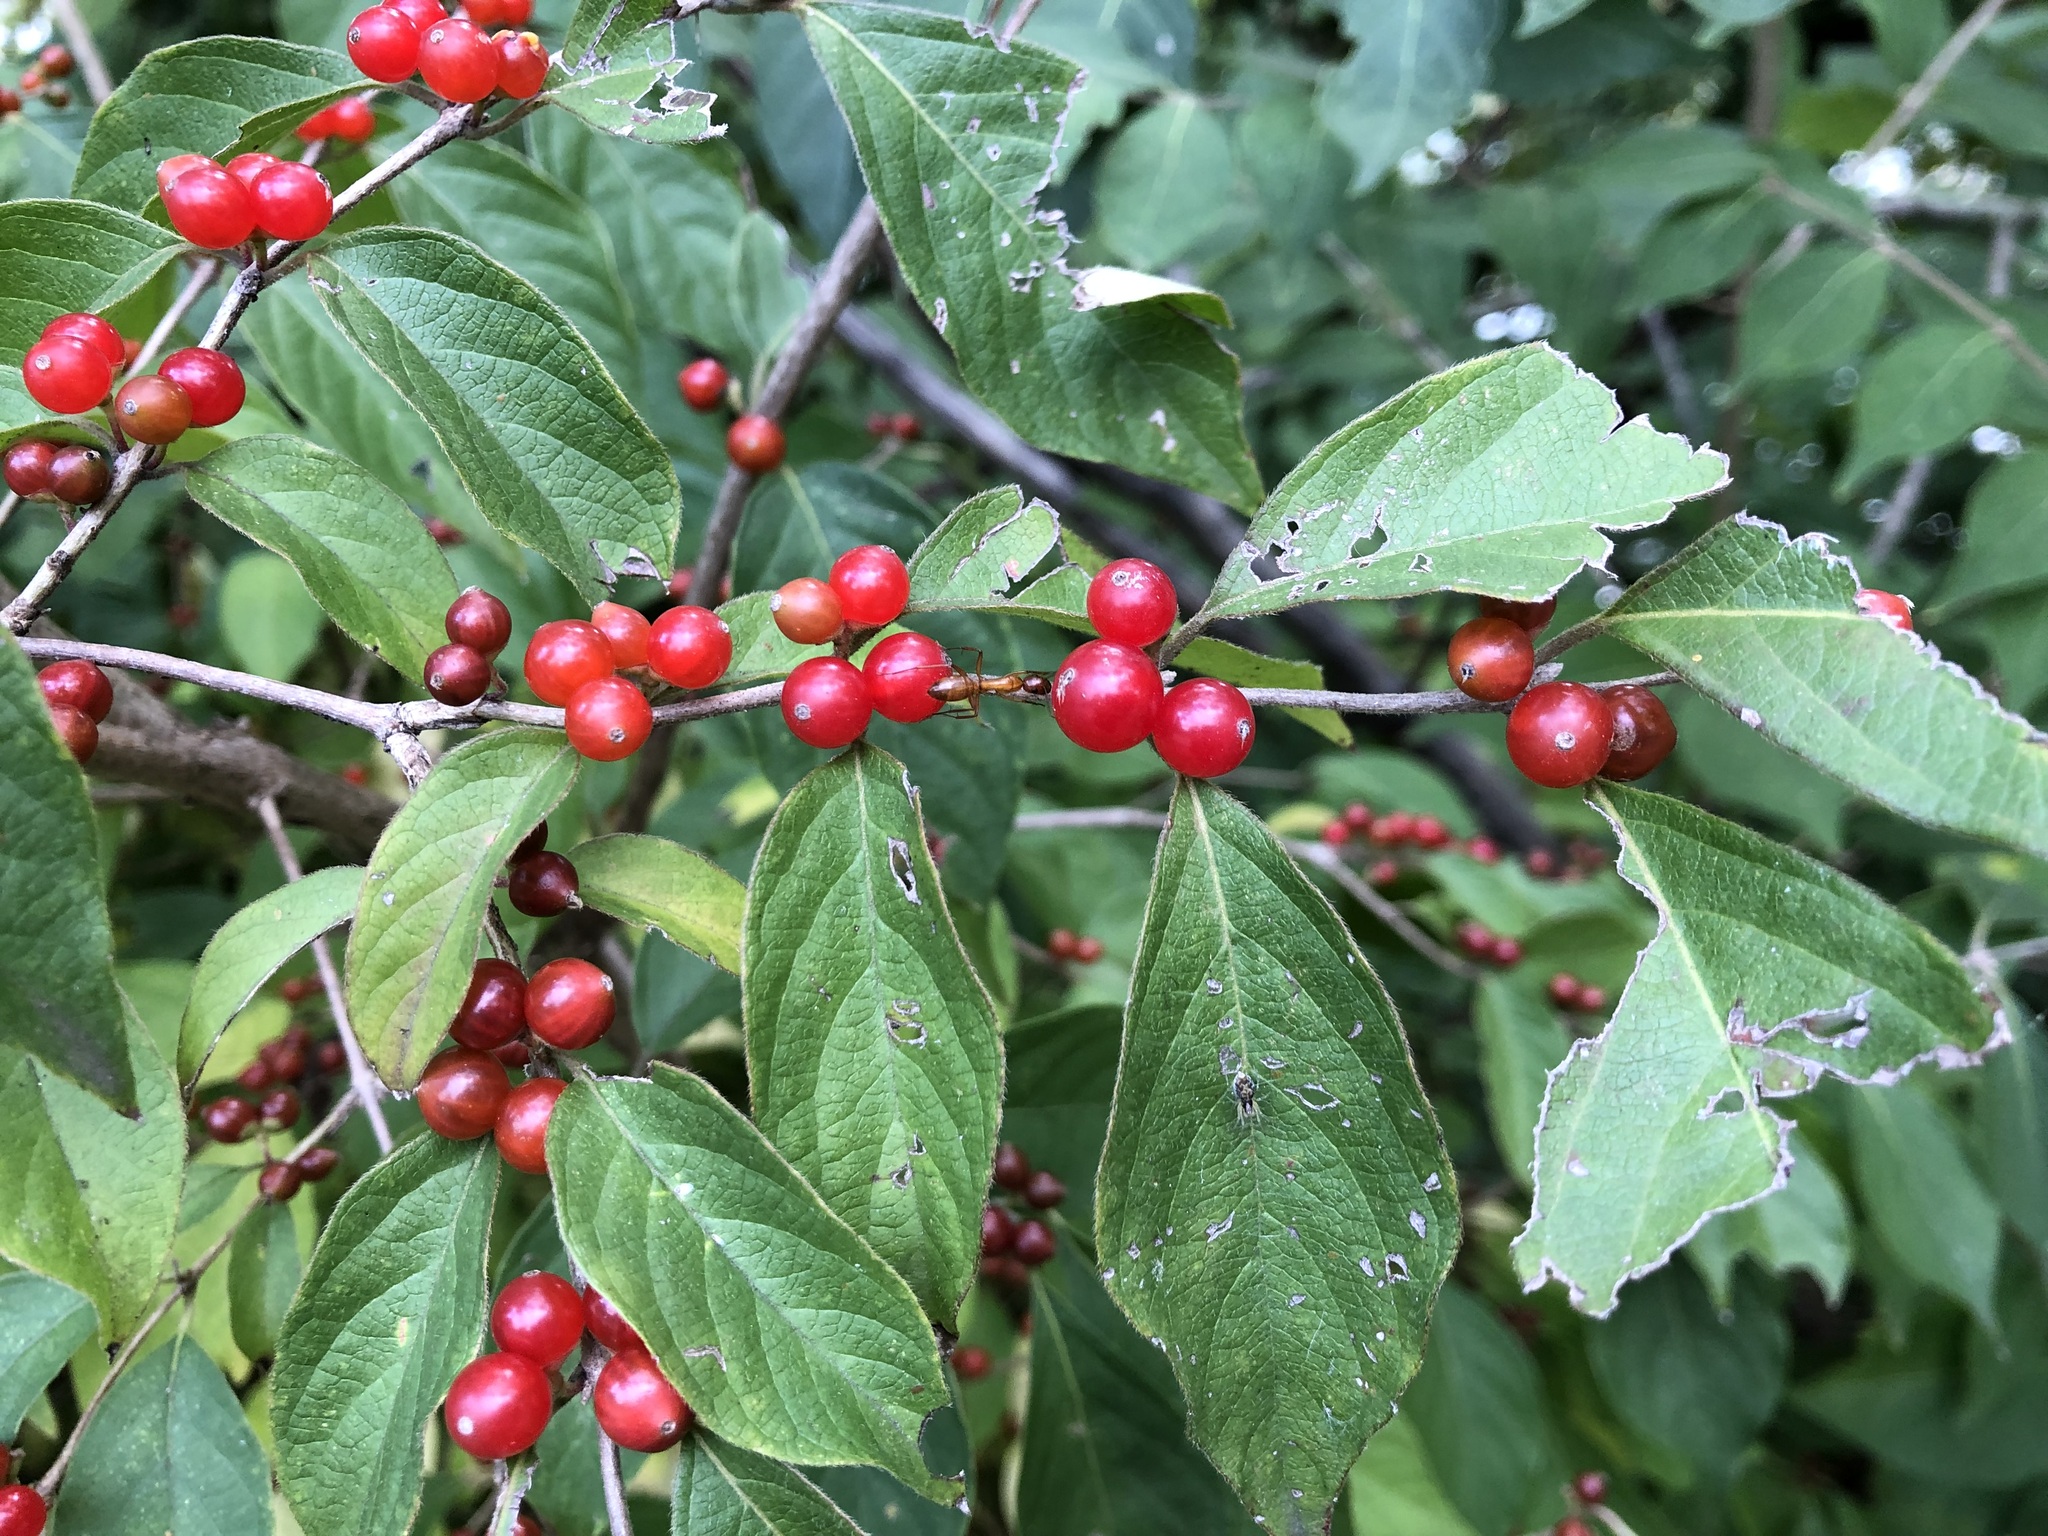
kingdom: Plantae
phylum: Tracheophyta
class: Magnoliopsida
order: Dipsacales
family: Caprifoliaceae
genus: Lonicera
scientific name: Lonicera maackii
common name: Amur honeysuckle
